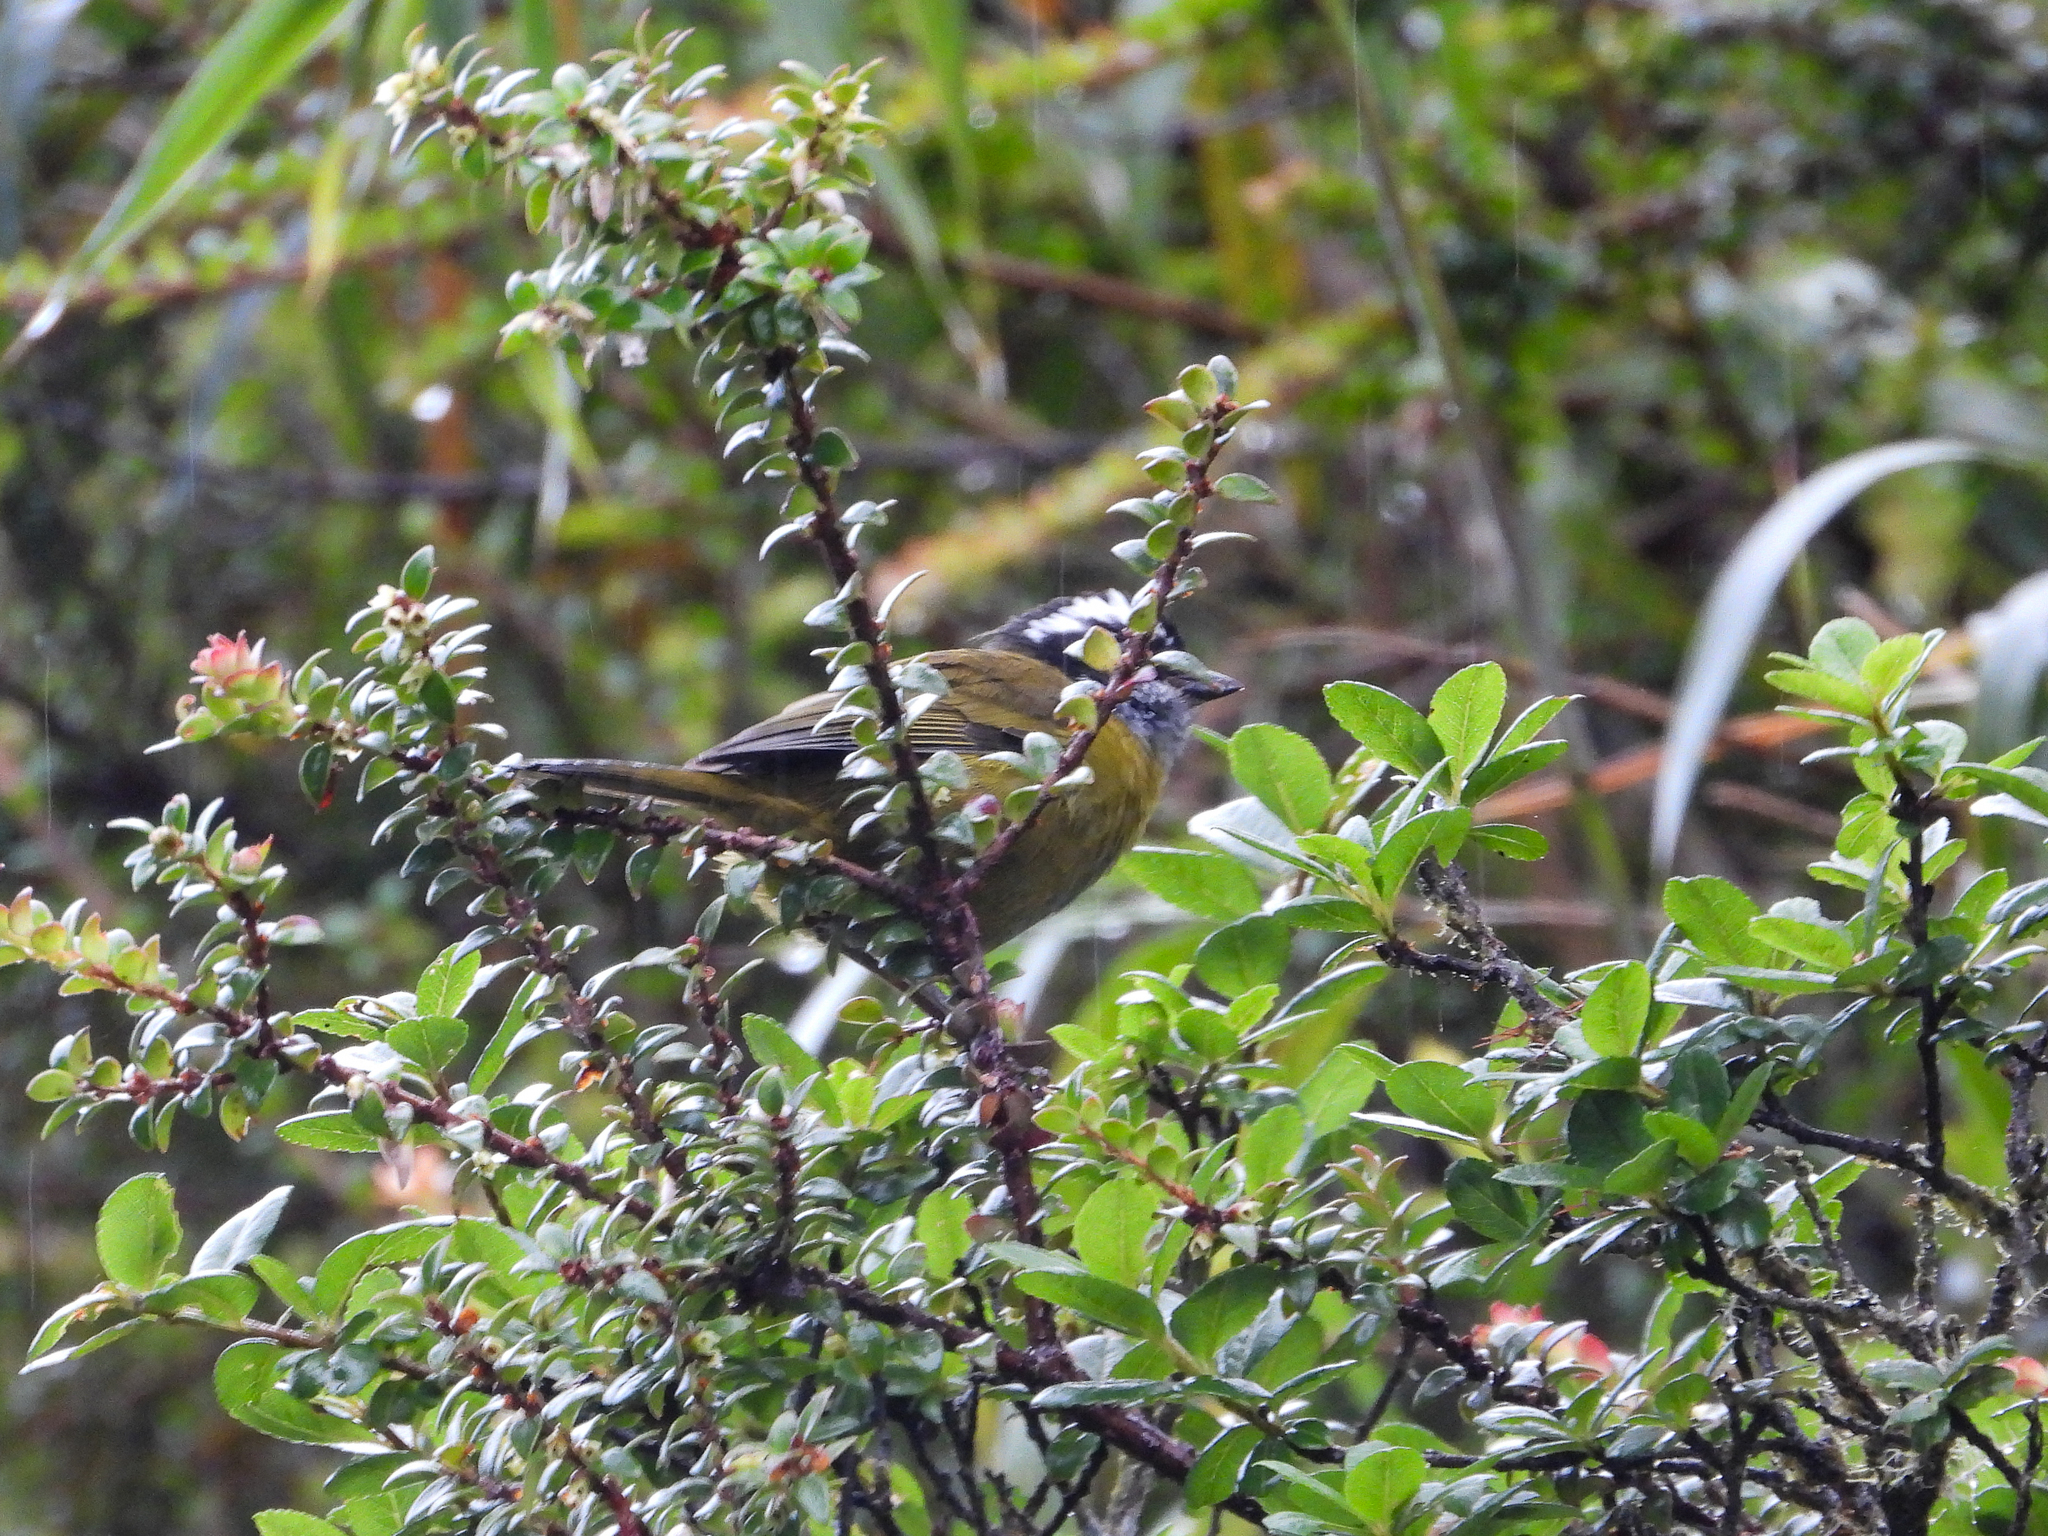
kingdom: Animalia
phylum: Chordata
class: Aves
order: Passeriformes
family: Passerellidae
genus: Chlorospingus
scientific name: Chlorospingus pileatus
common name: Sooty-capped bush-tanager
